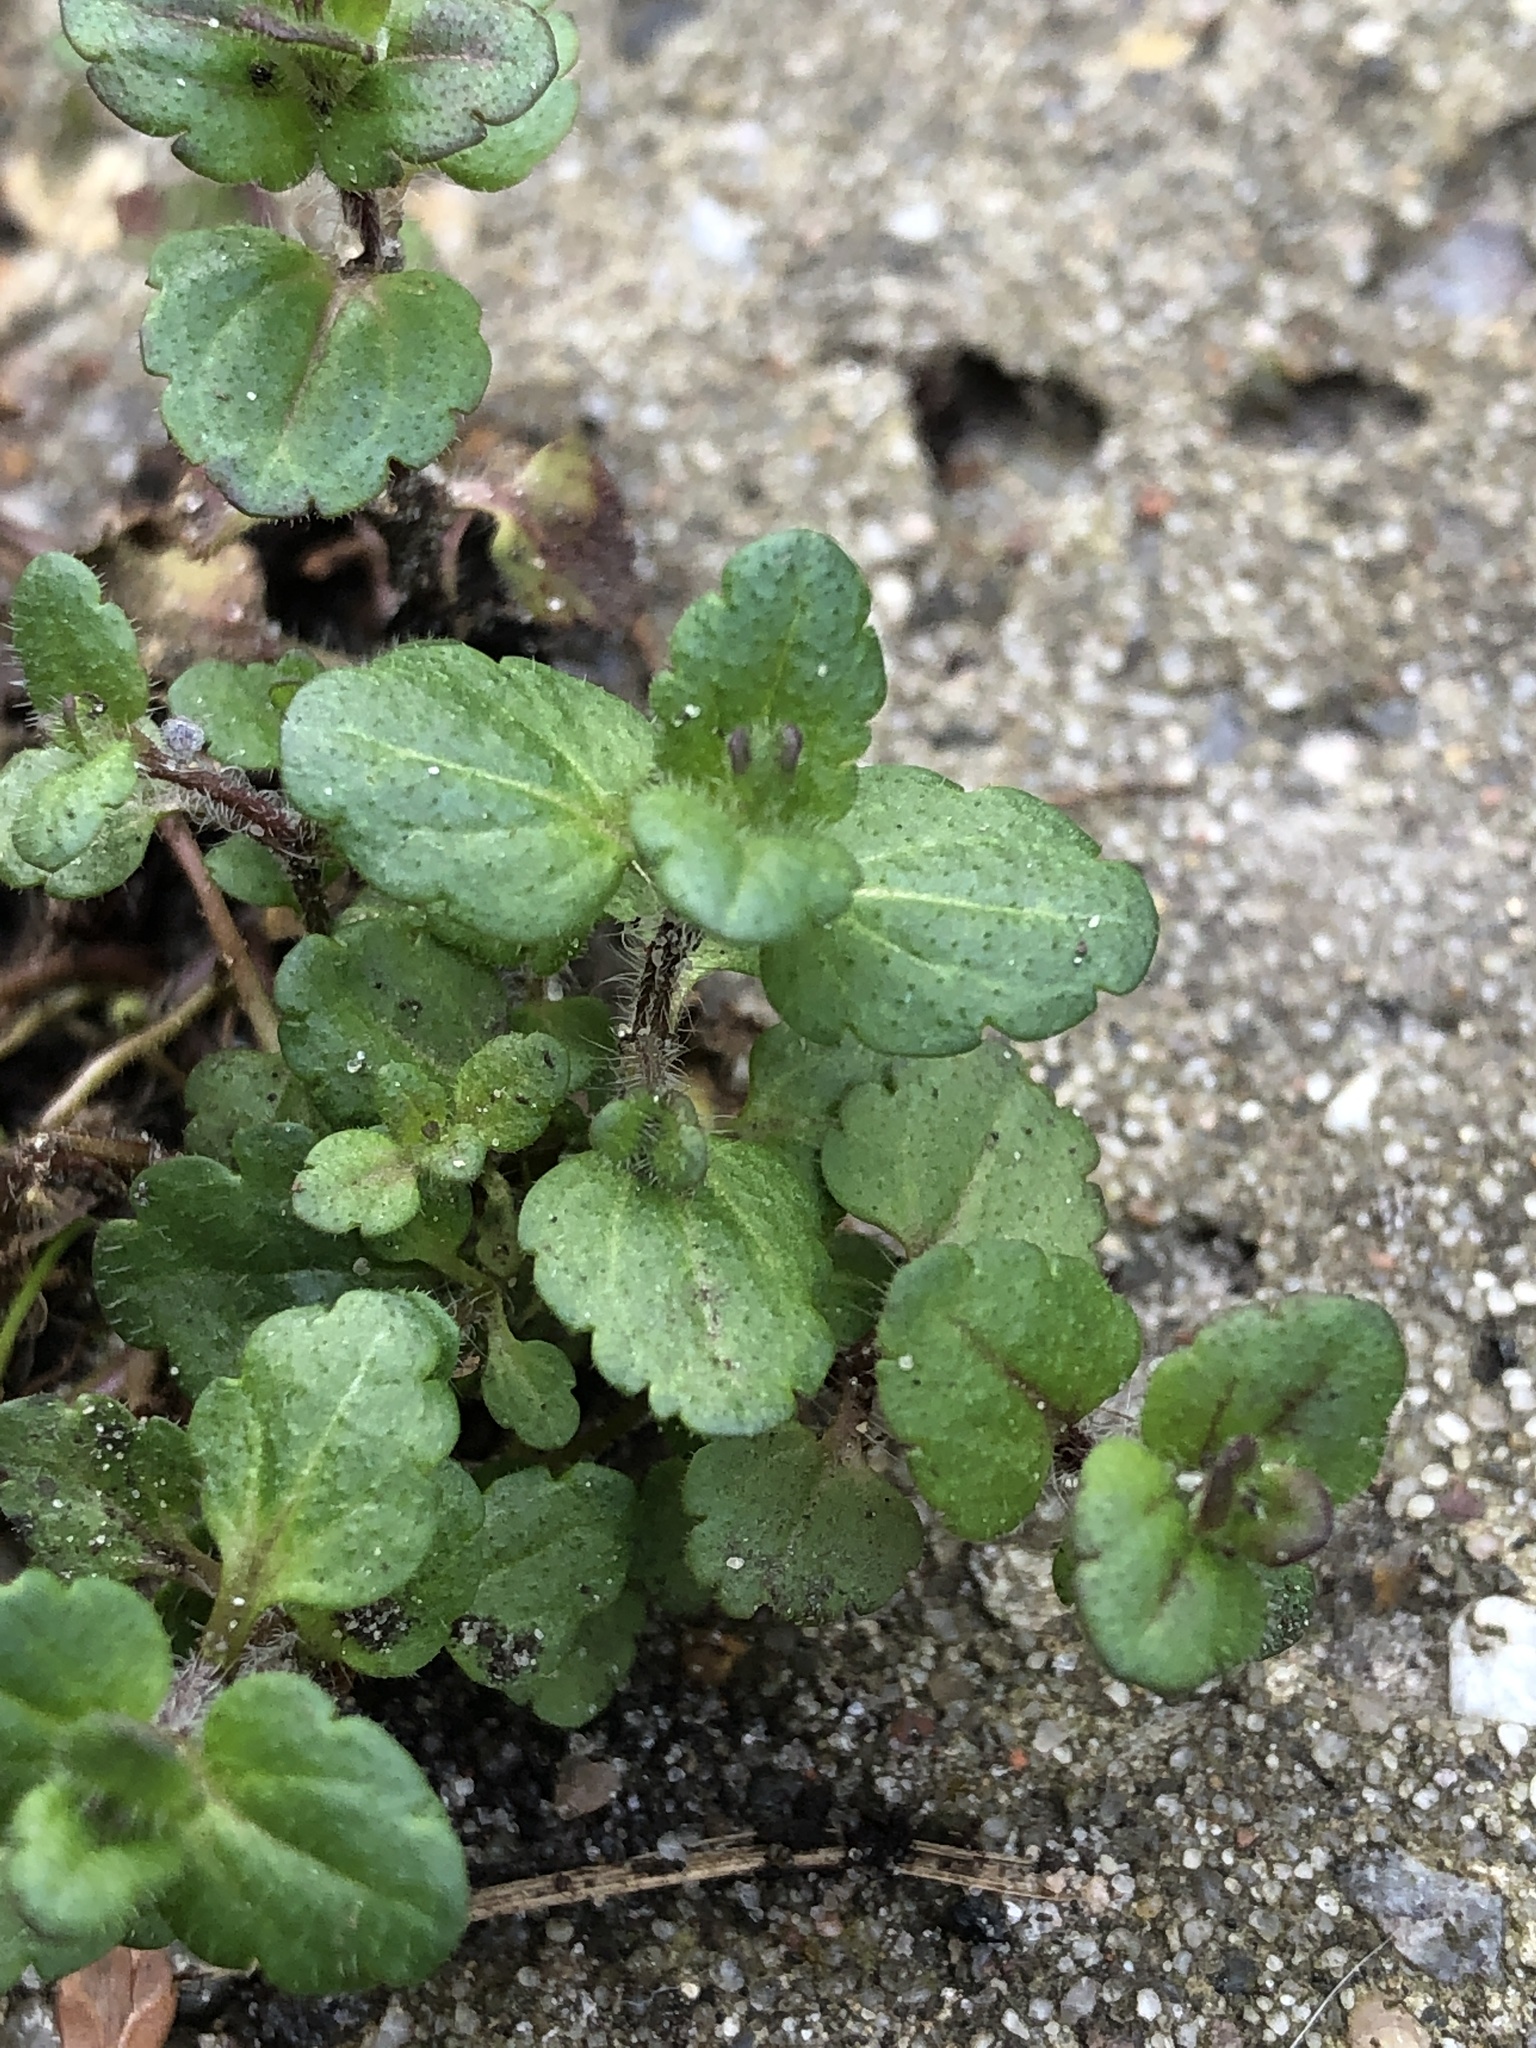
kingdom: Plantae
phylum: Tracheophyta
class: Magnoliopsida
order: Lamiales
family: Plantaginaceae
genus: Veronica
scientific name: Veronica arvensis
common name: Corn speedwell
